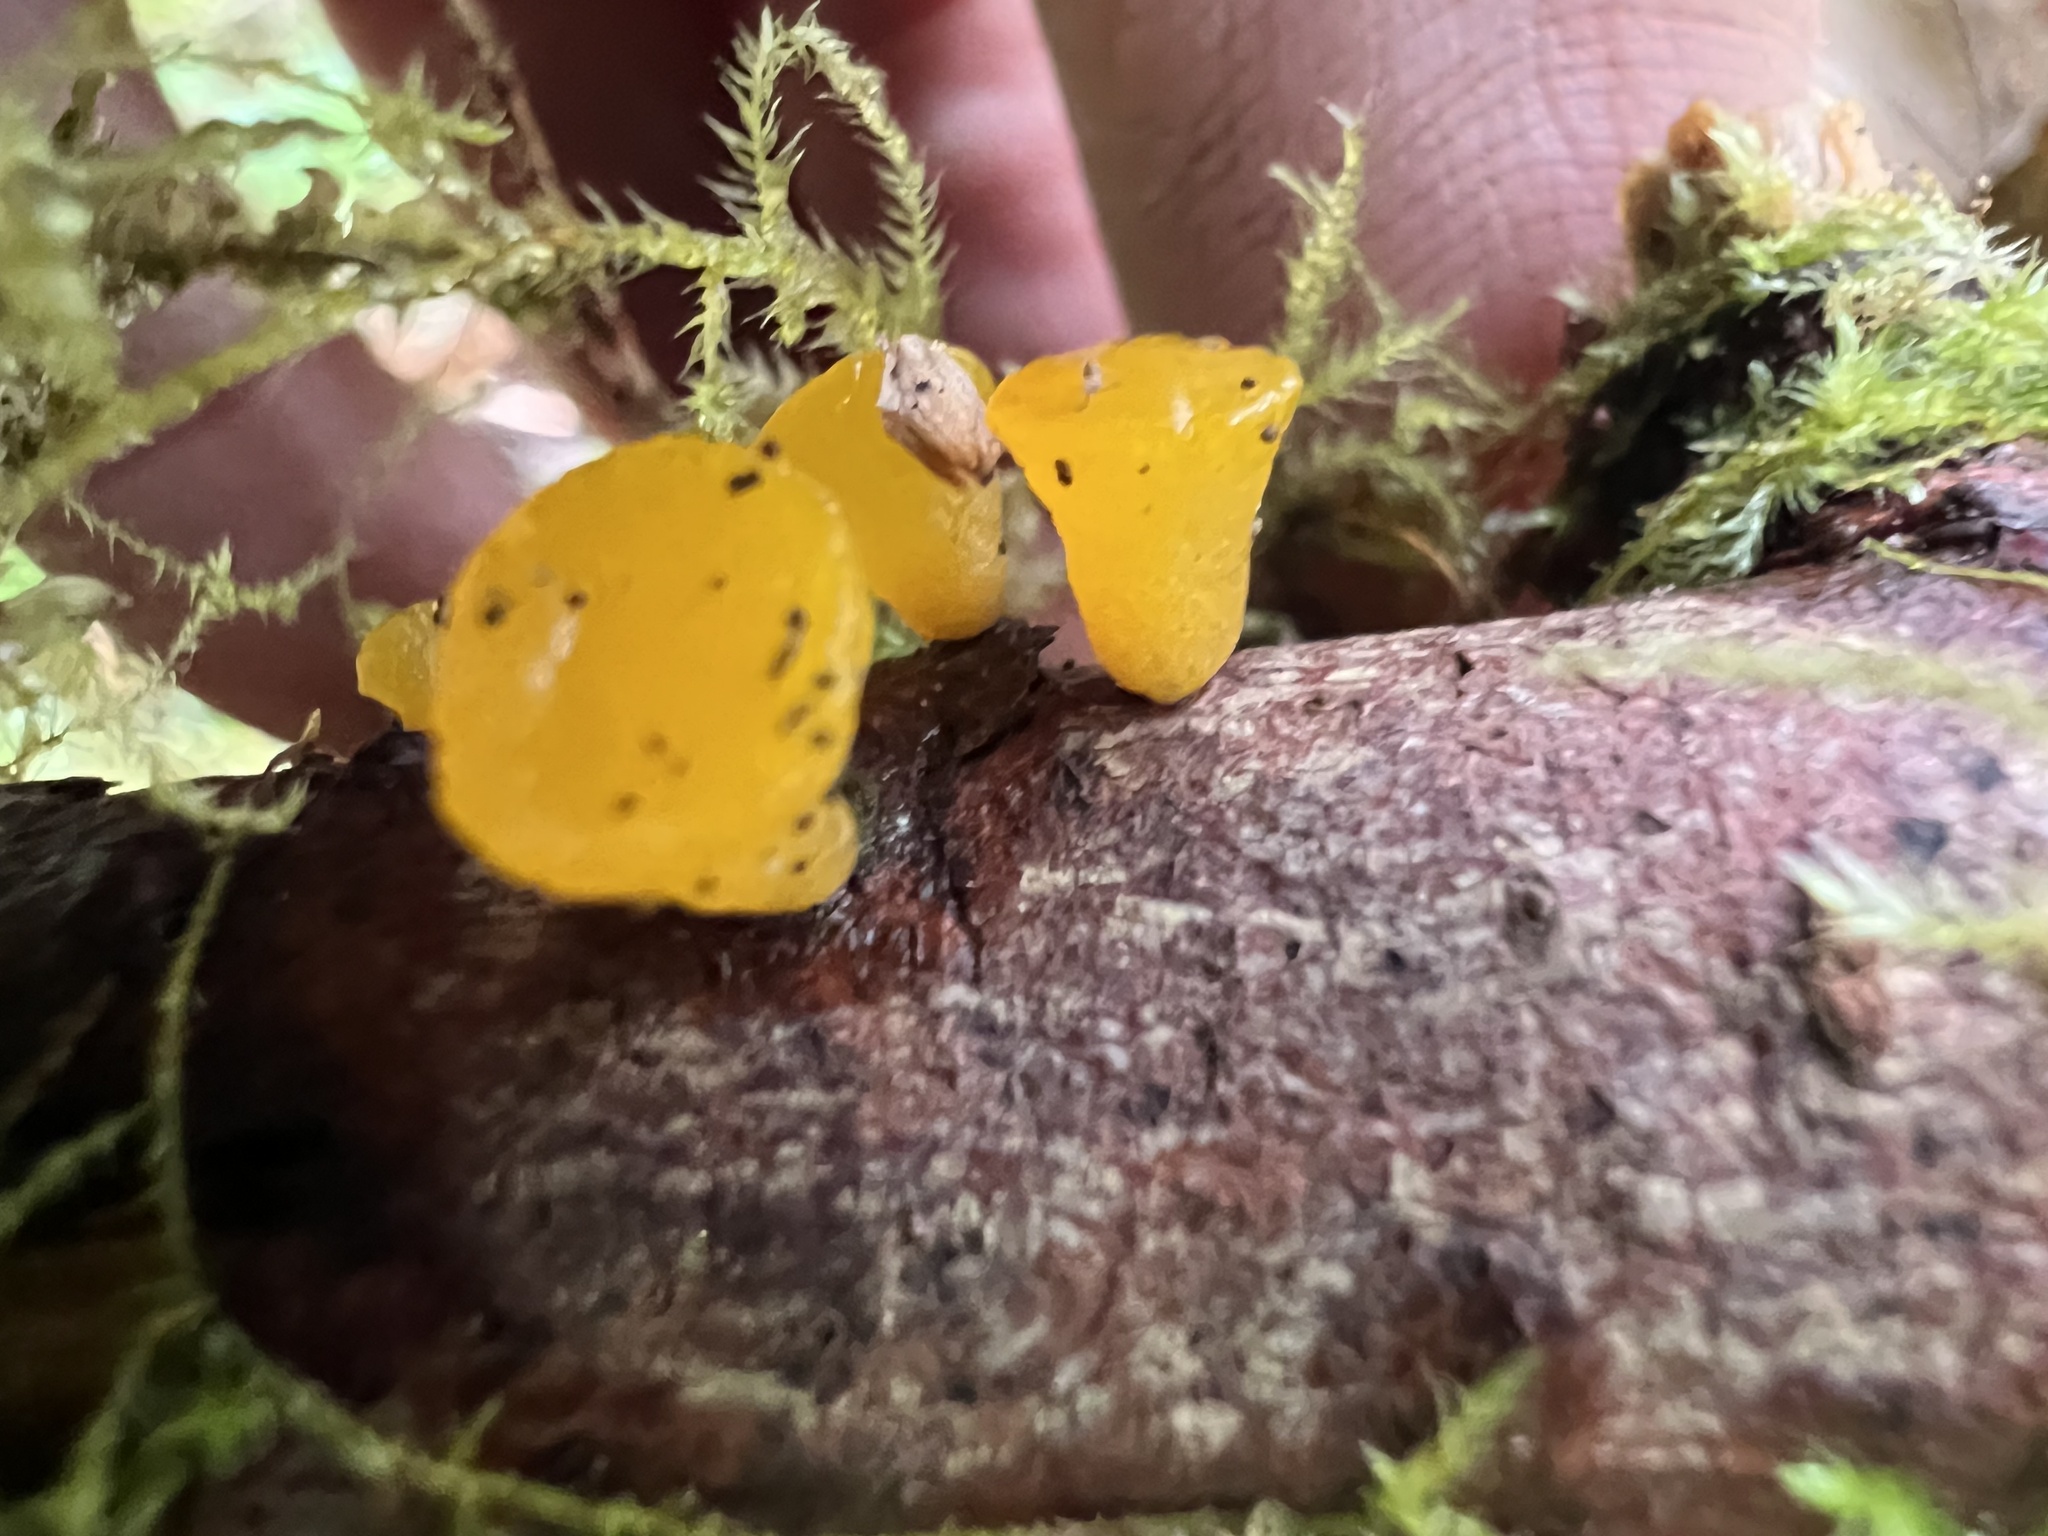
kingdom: Fungi
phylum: Basidiomycota
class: Dacrymycetes
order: Dacrymycetales
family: Dacrymycetaceae
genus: Guepiniopsis
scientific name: Guepiniopsis alpina
